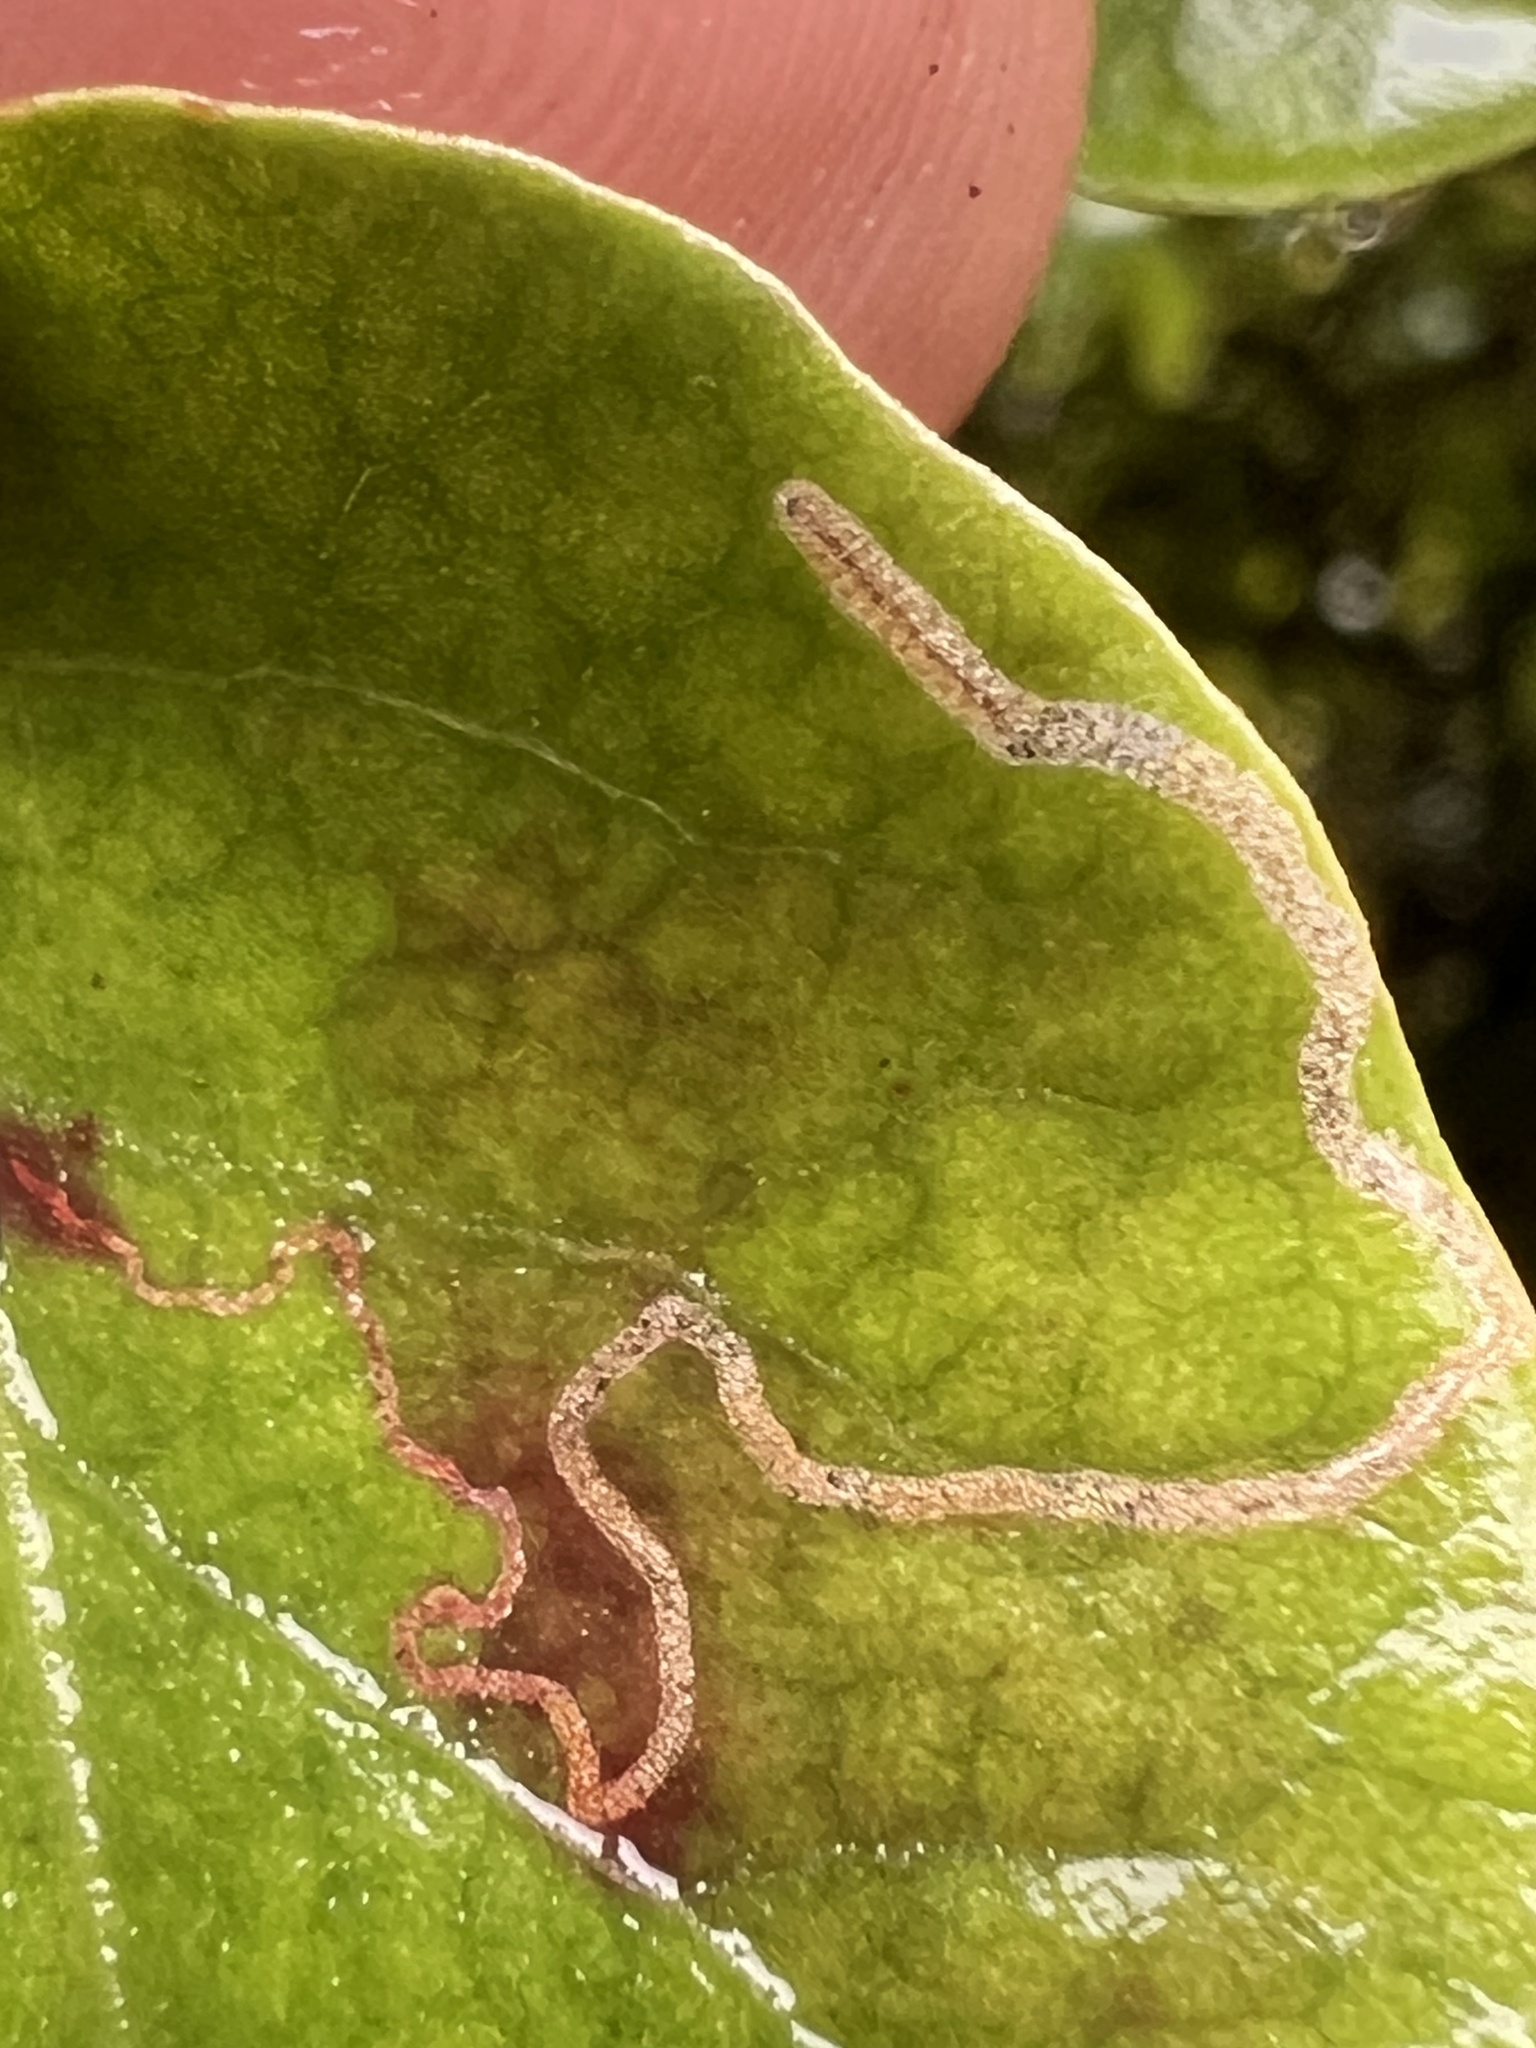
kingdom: Plantae
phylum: Tracheophyta
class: Magnoliopsida
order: Caryophyllales
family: Polygonaceae
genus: Muehlenbeckia
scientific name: Muehlenbeckia australis
